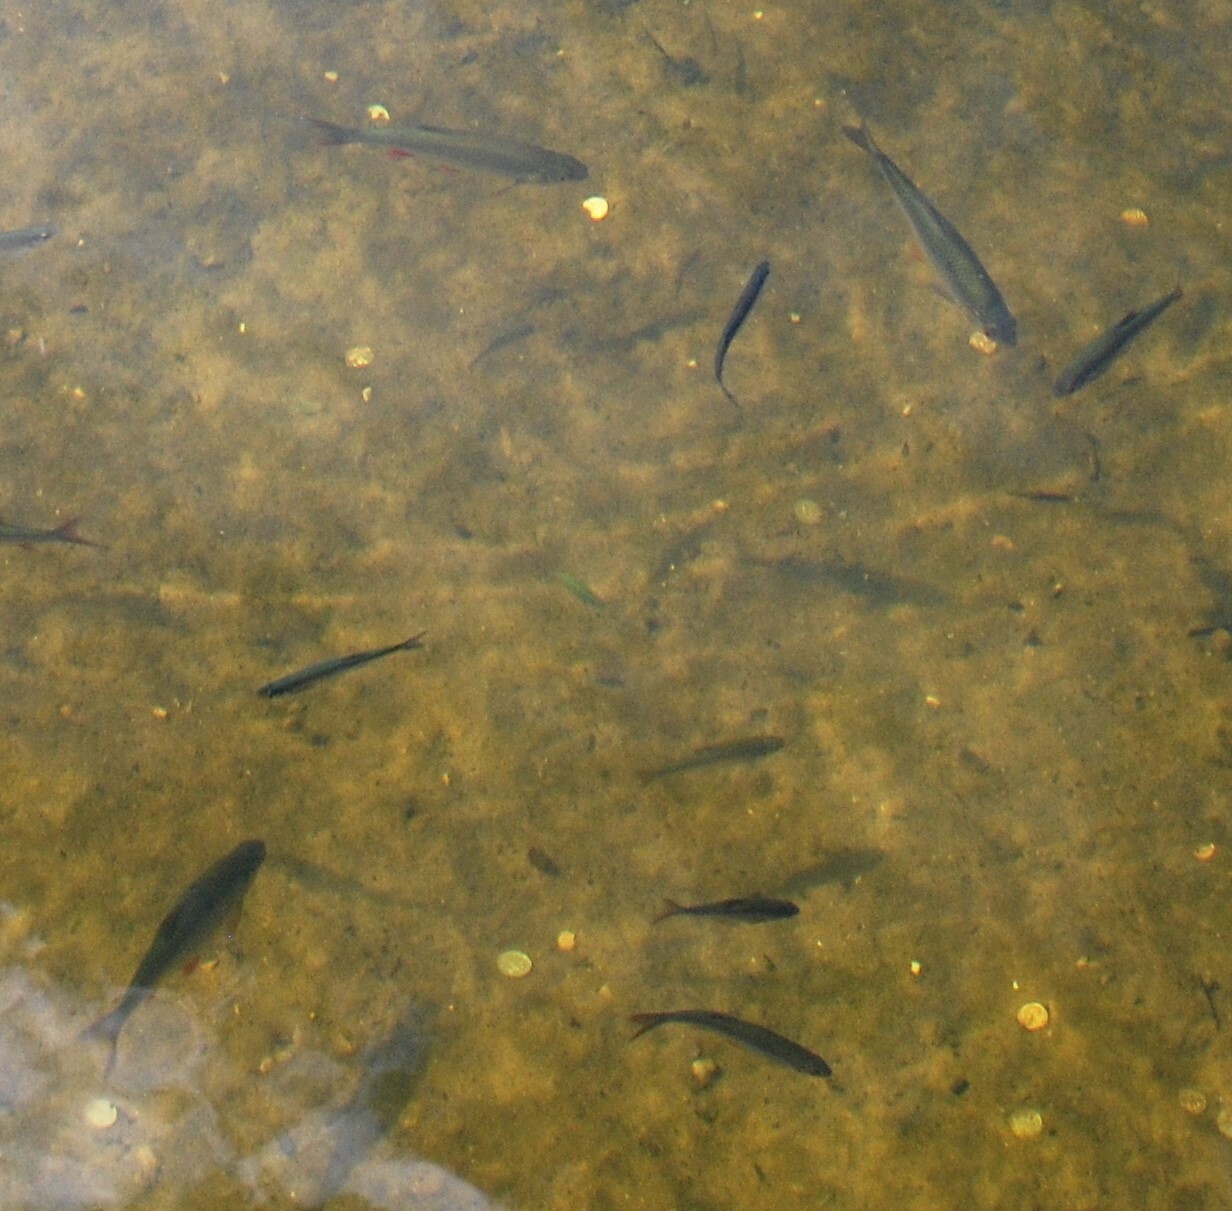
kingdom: Animalia
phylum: Chordata
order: Cypriniformes
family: Cyprinidae
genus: Scardinius
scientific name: Scardinius erythrophthalmus
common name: Rudd
